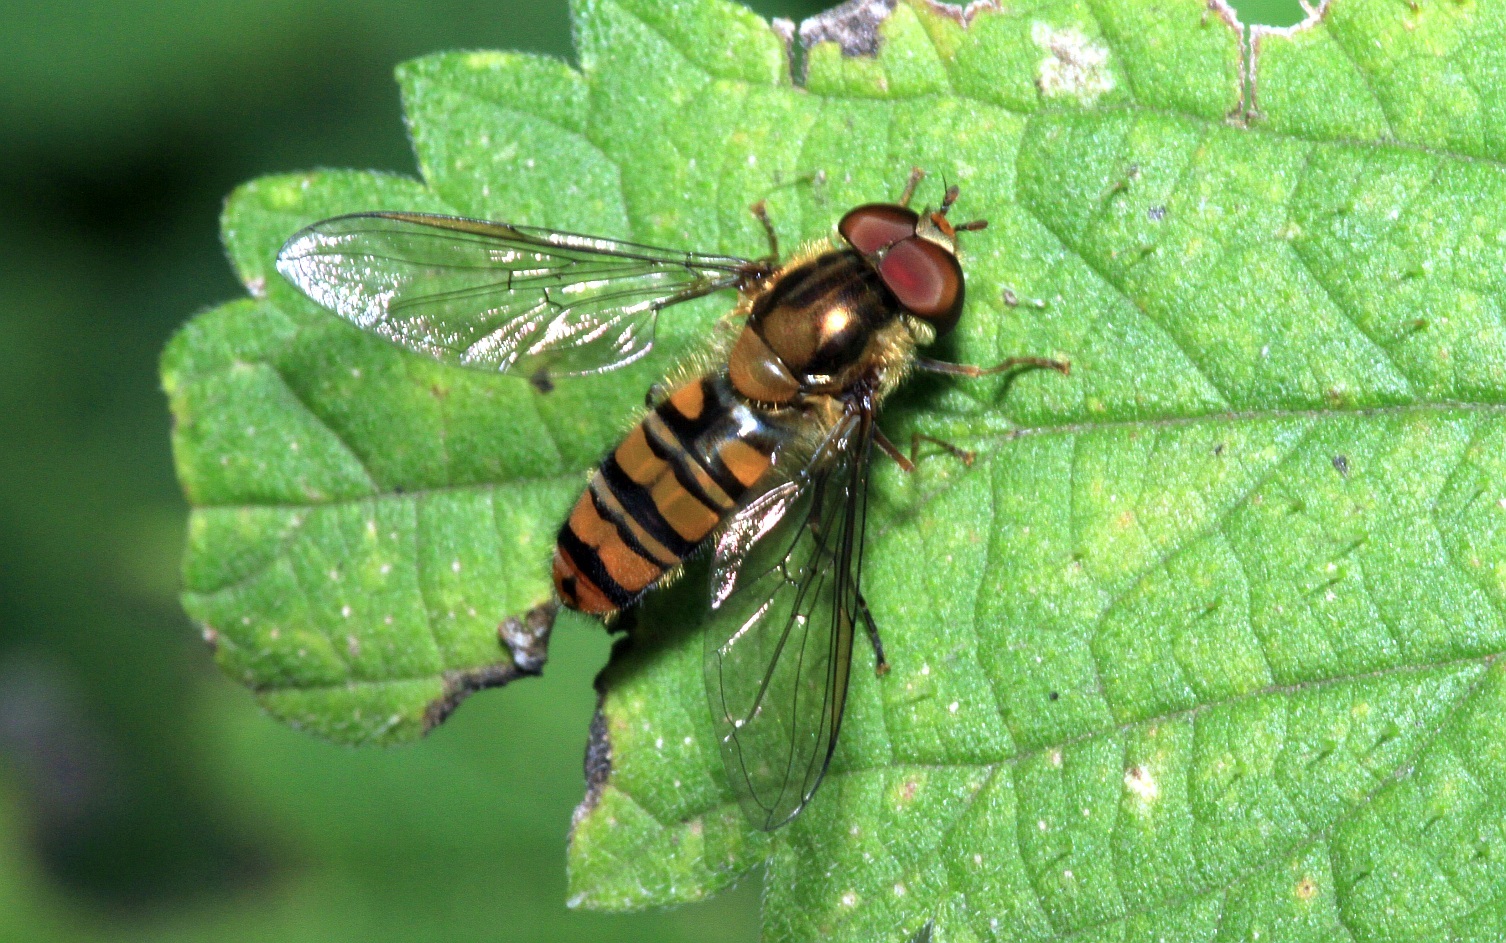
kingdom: Animalia
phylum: Arthropoda
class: Insecta
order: Diptera
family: Syrphidae
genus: Episyrphus
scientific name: Episyrphus balteatus
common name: Marmalade hoverfly
